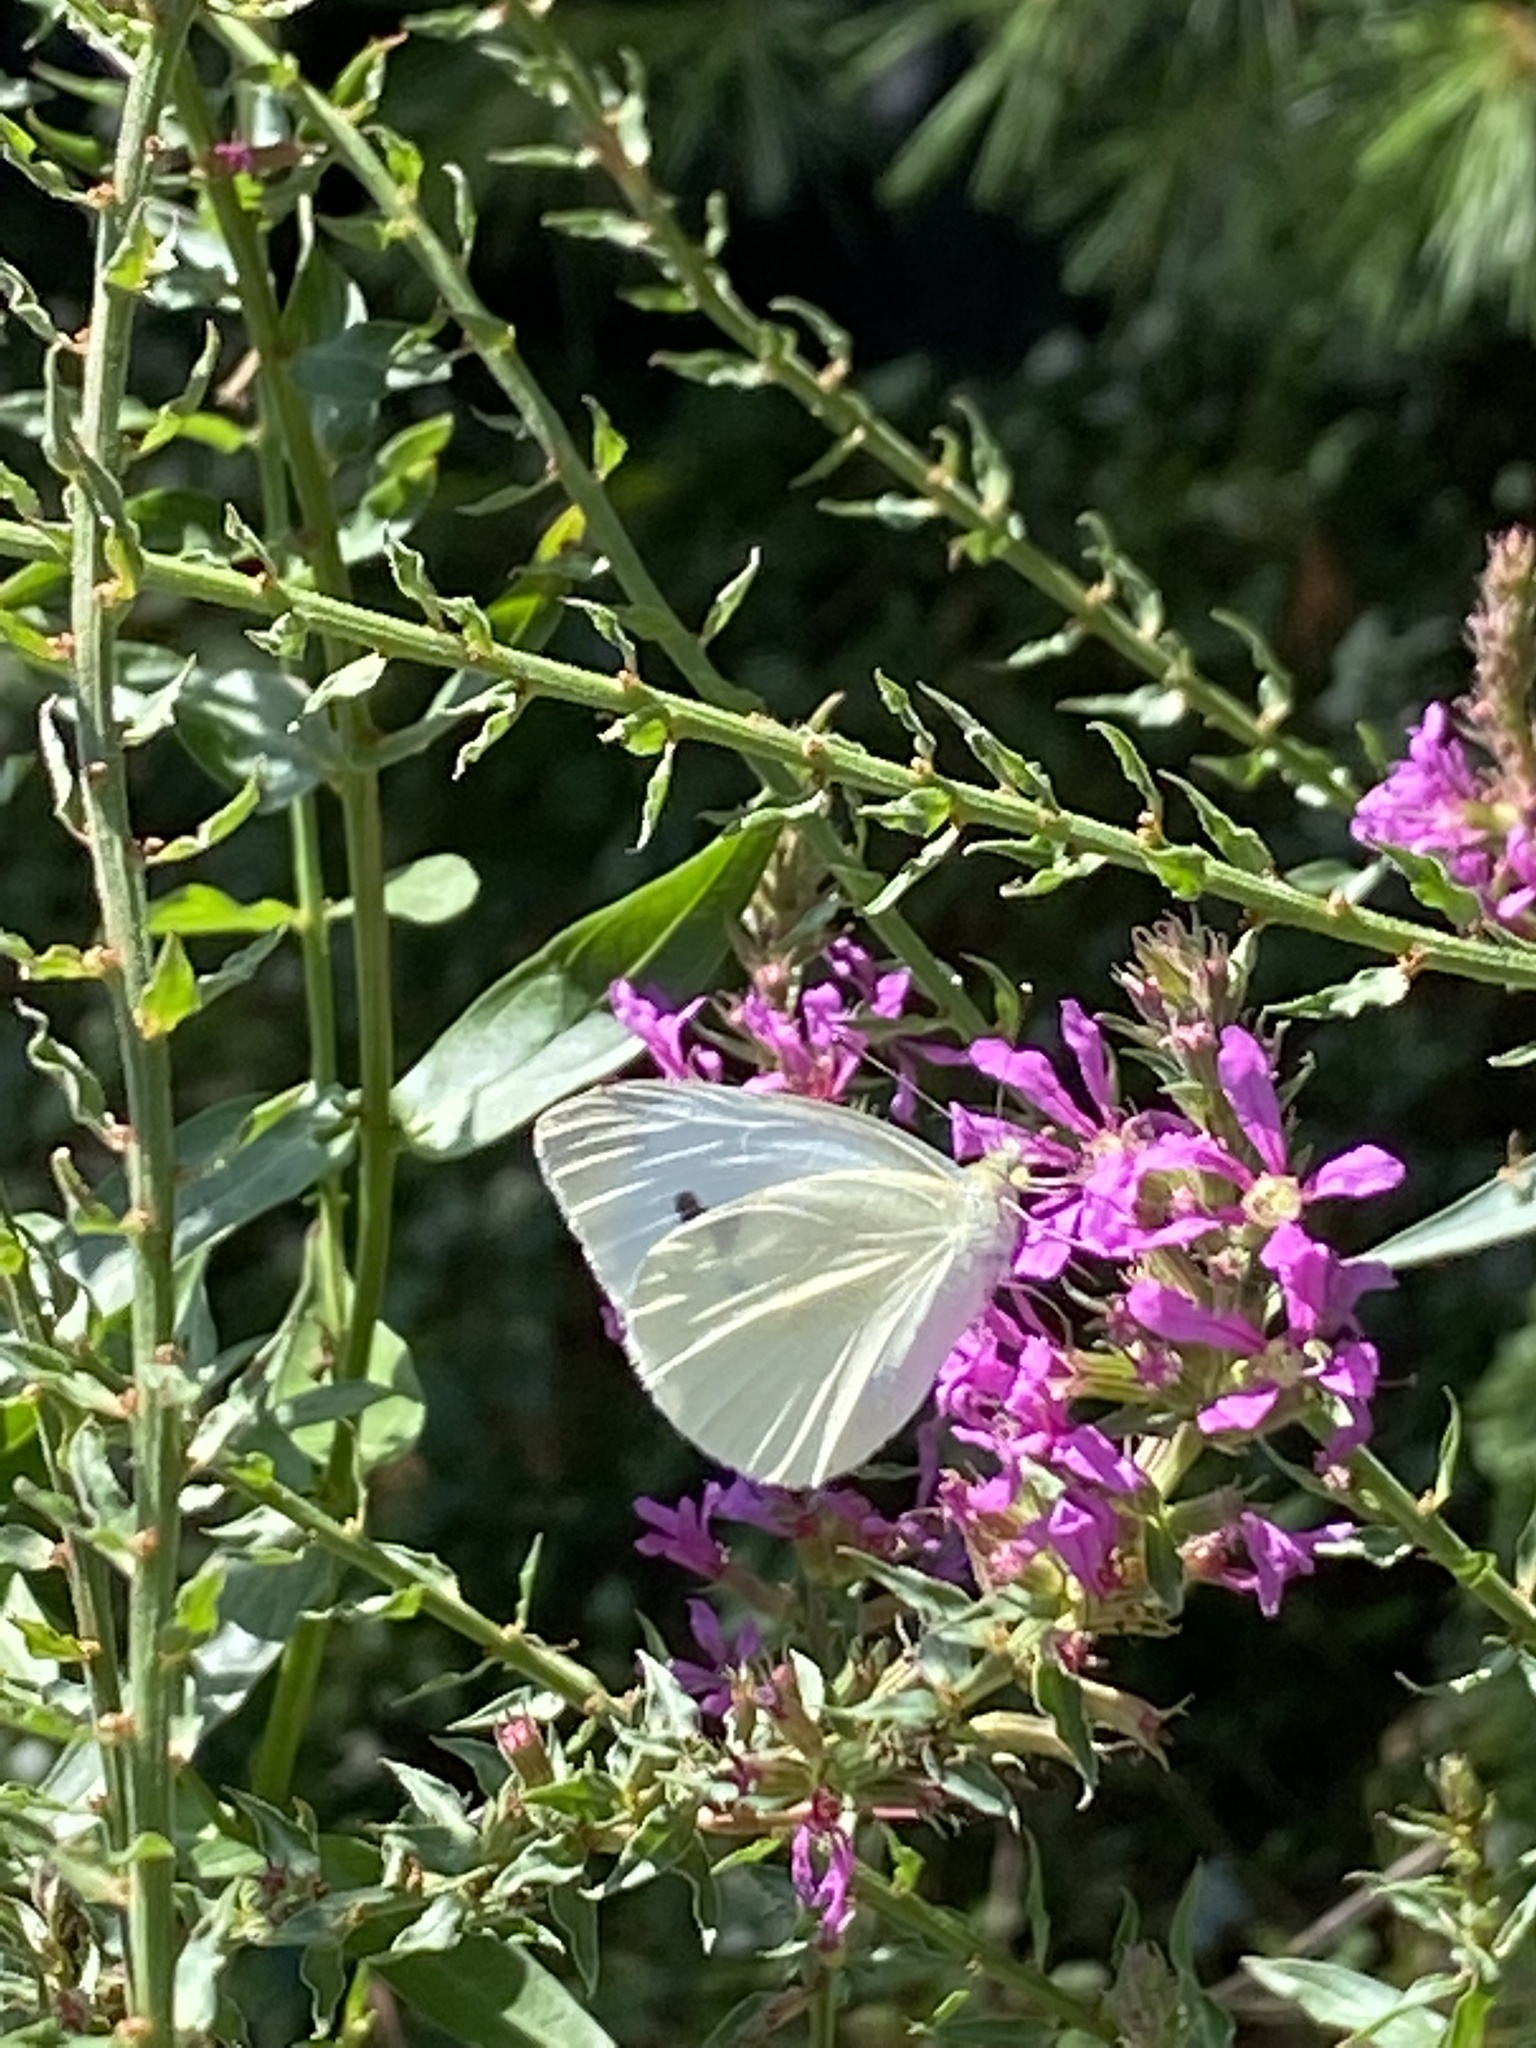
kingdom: Animalia
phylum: Arthropoda
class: Insecta
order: Lepidoptera
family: Pieridae
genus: Pieris
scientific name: Pieris rapae
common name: Small white
